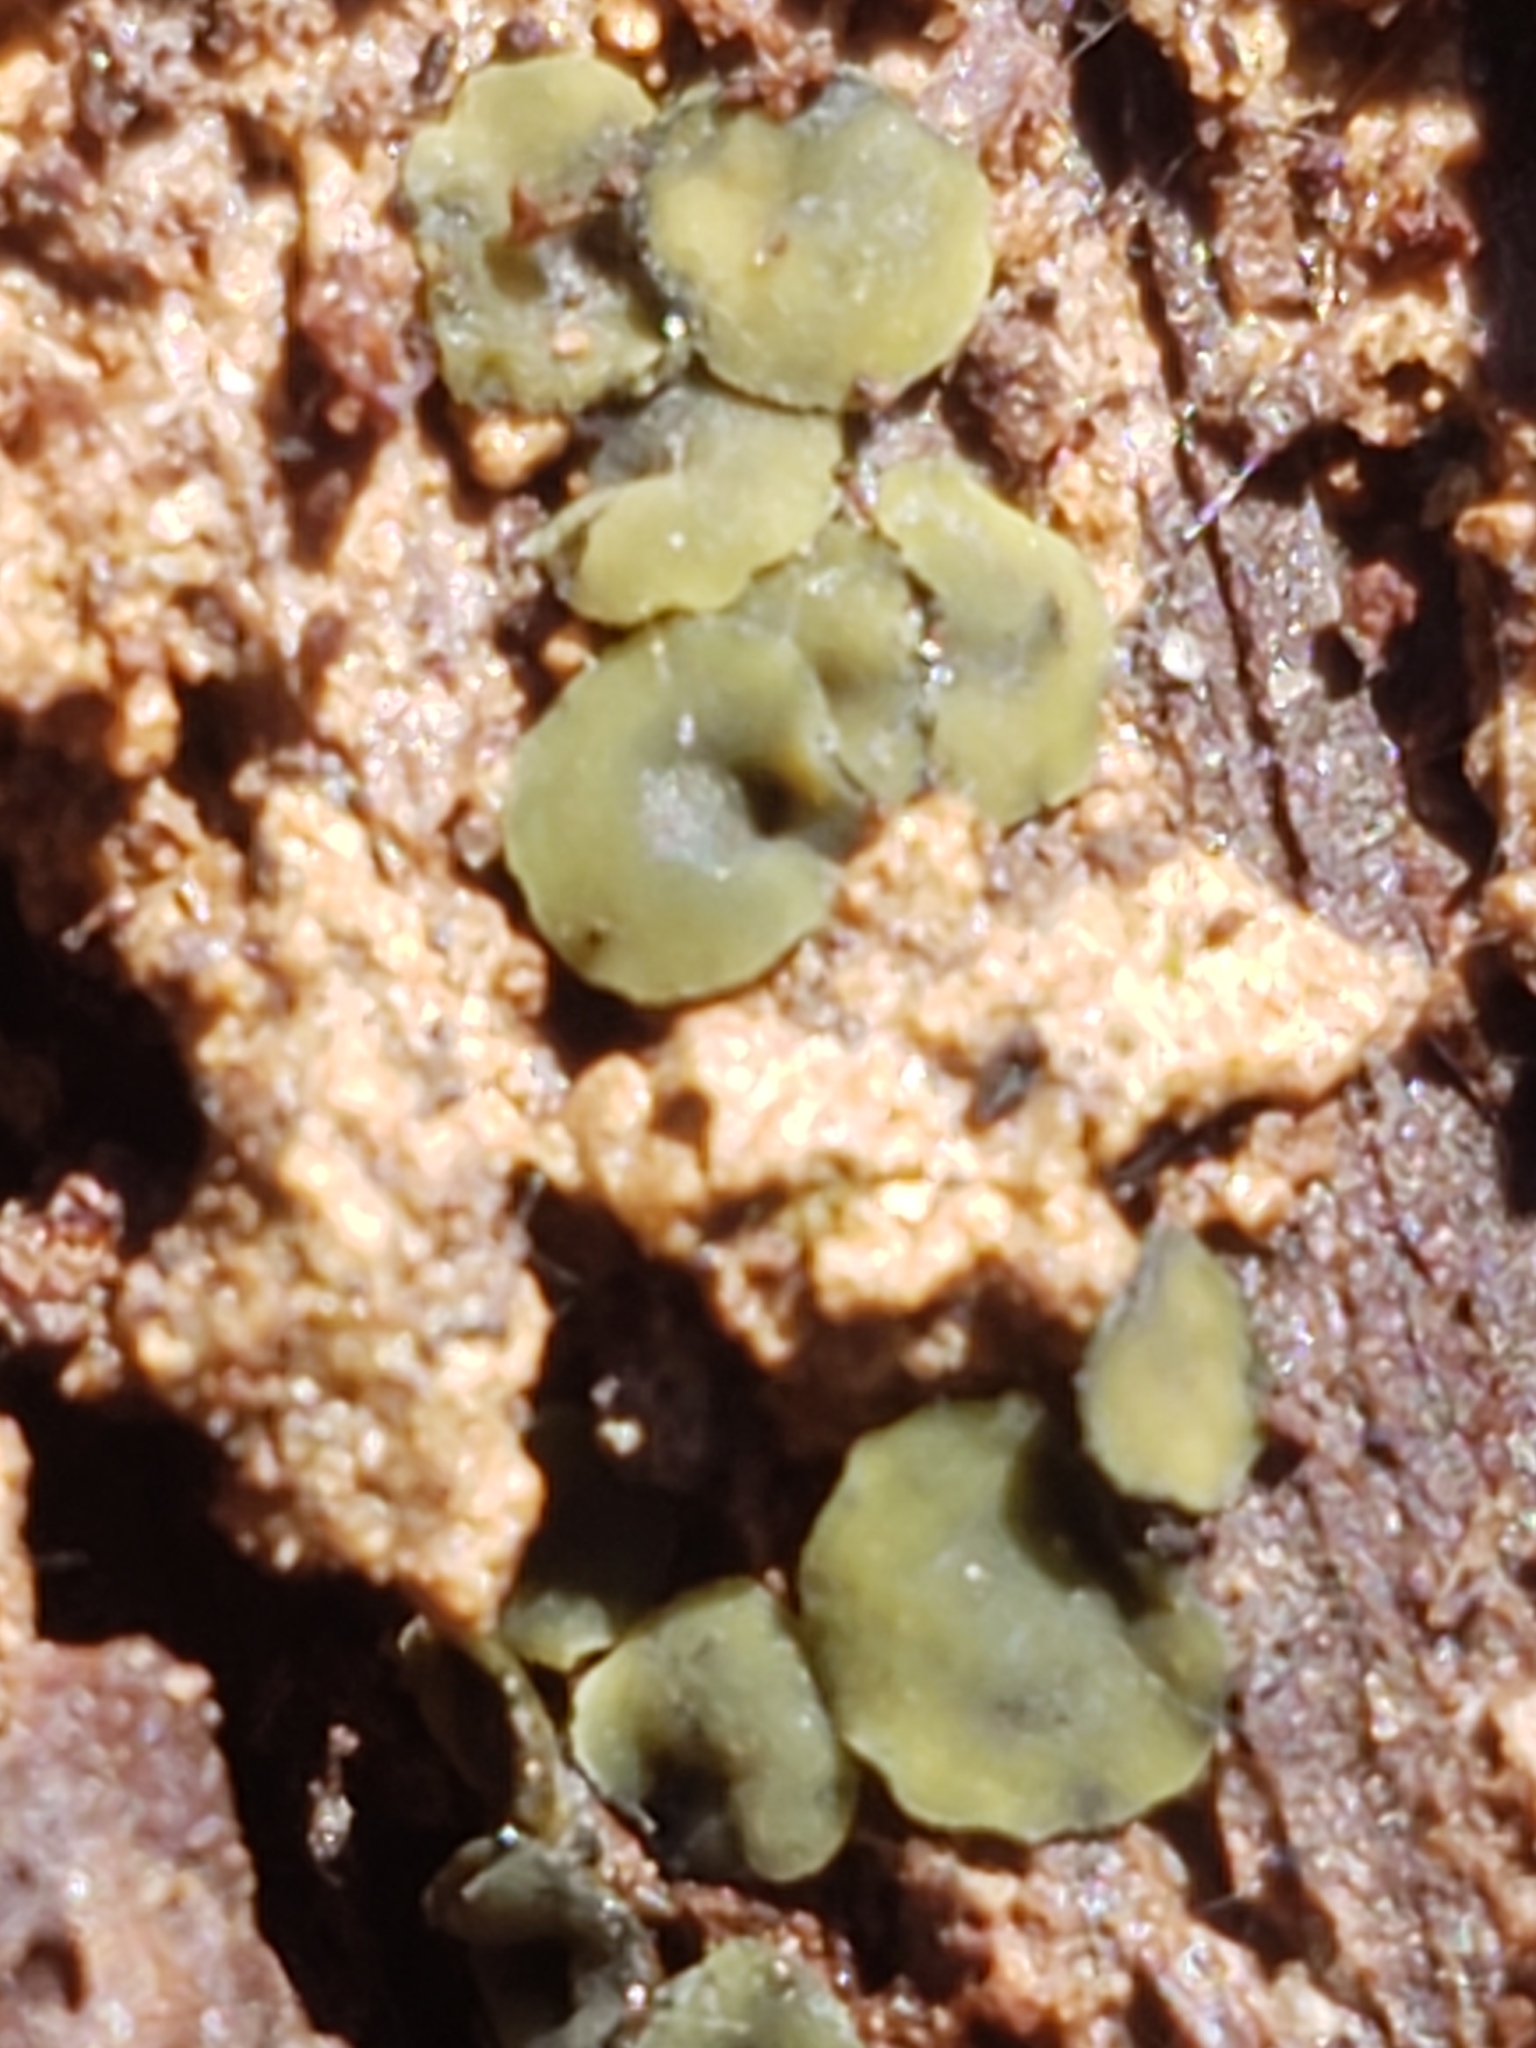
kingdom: Fungi
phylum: Ascomycota
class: Leotiomycetes
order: Helotiales
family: Chlorospleniaceae
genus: Chlorosplenium
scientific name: Chlorosplenium chlora
